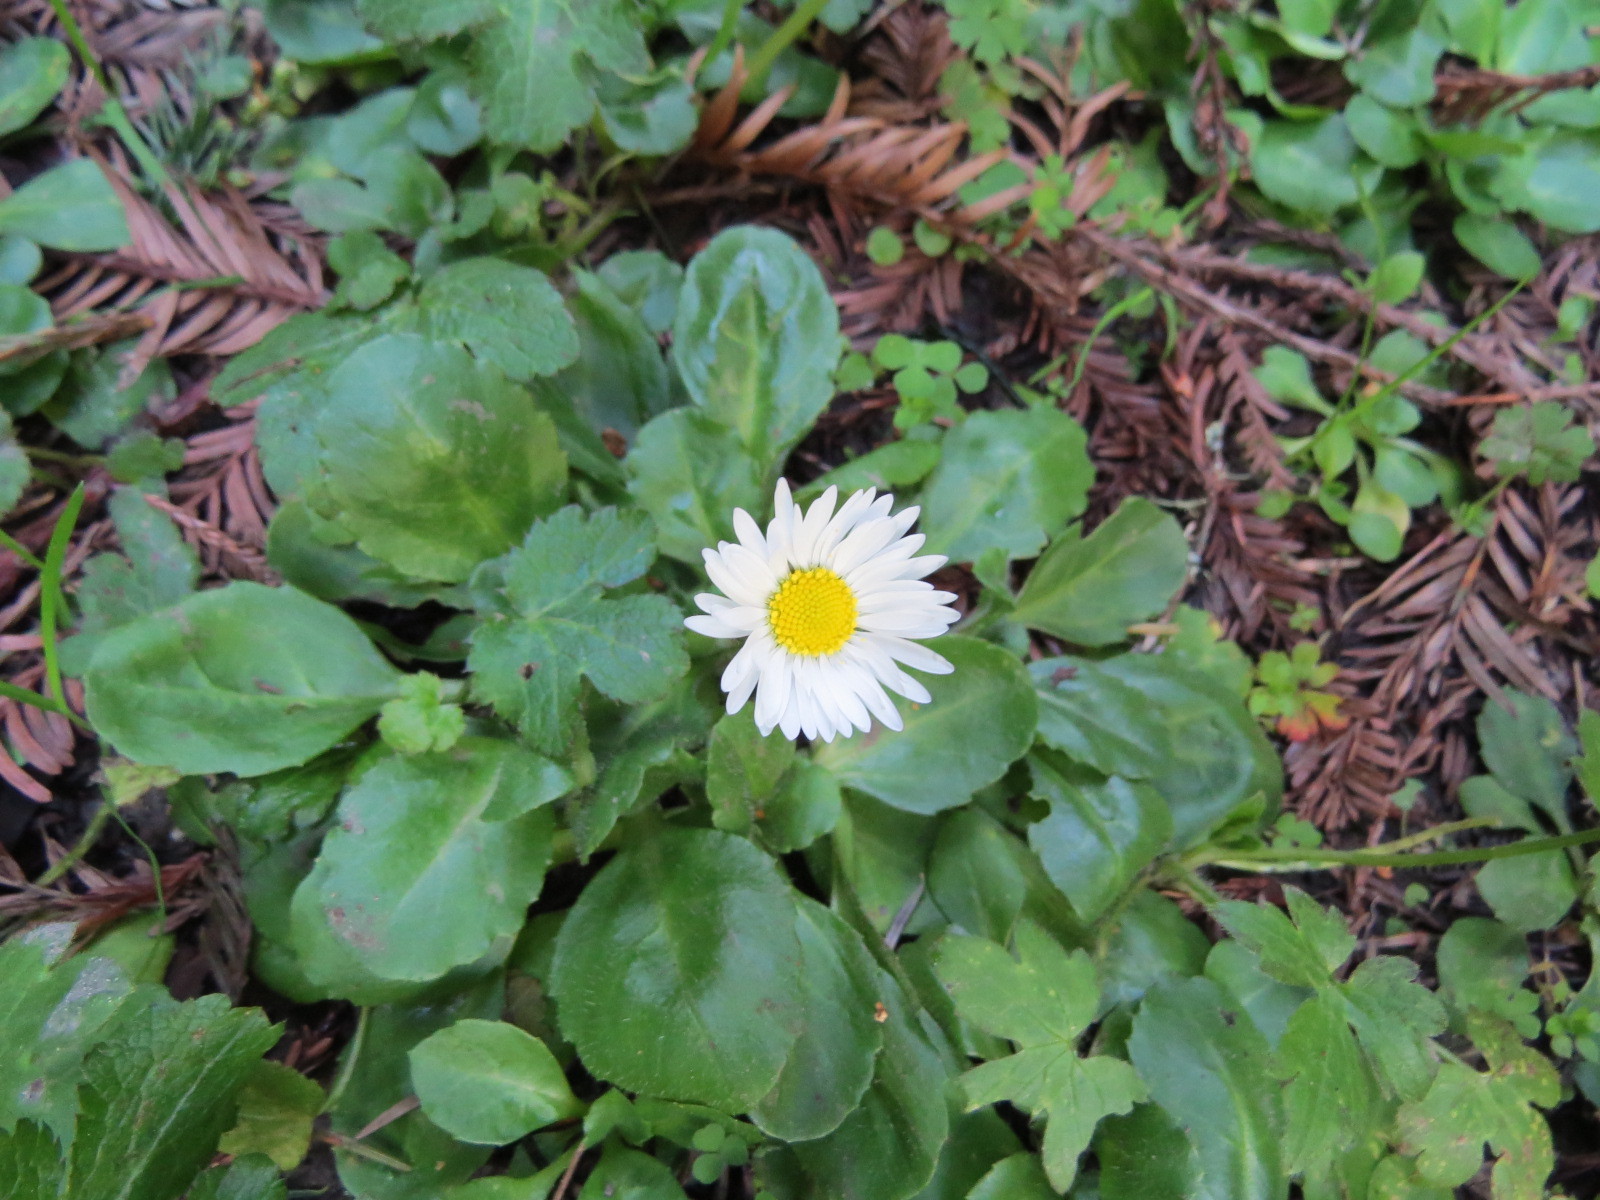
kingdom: Plantae
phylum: Tracheophyta
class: Magnoliopsida
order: Asterales
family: Asteraceae
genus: Bellis
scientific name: Bellis perennis
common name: Lawndaisy
